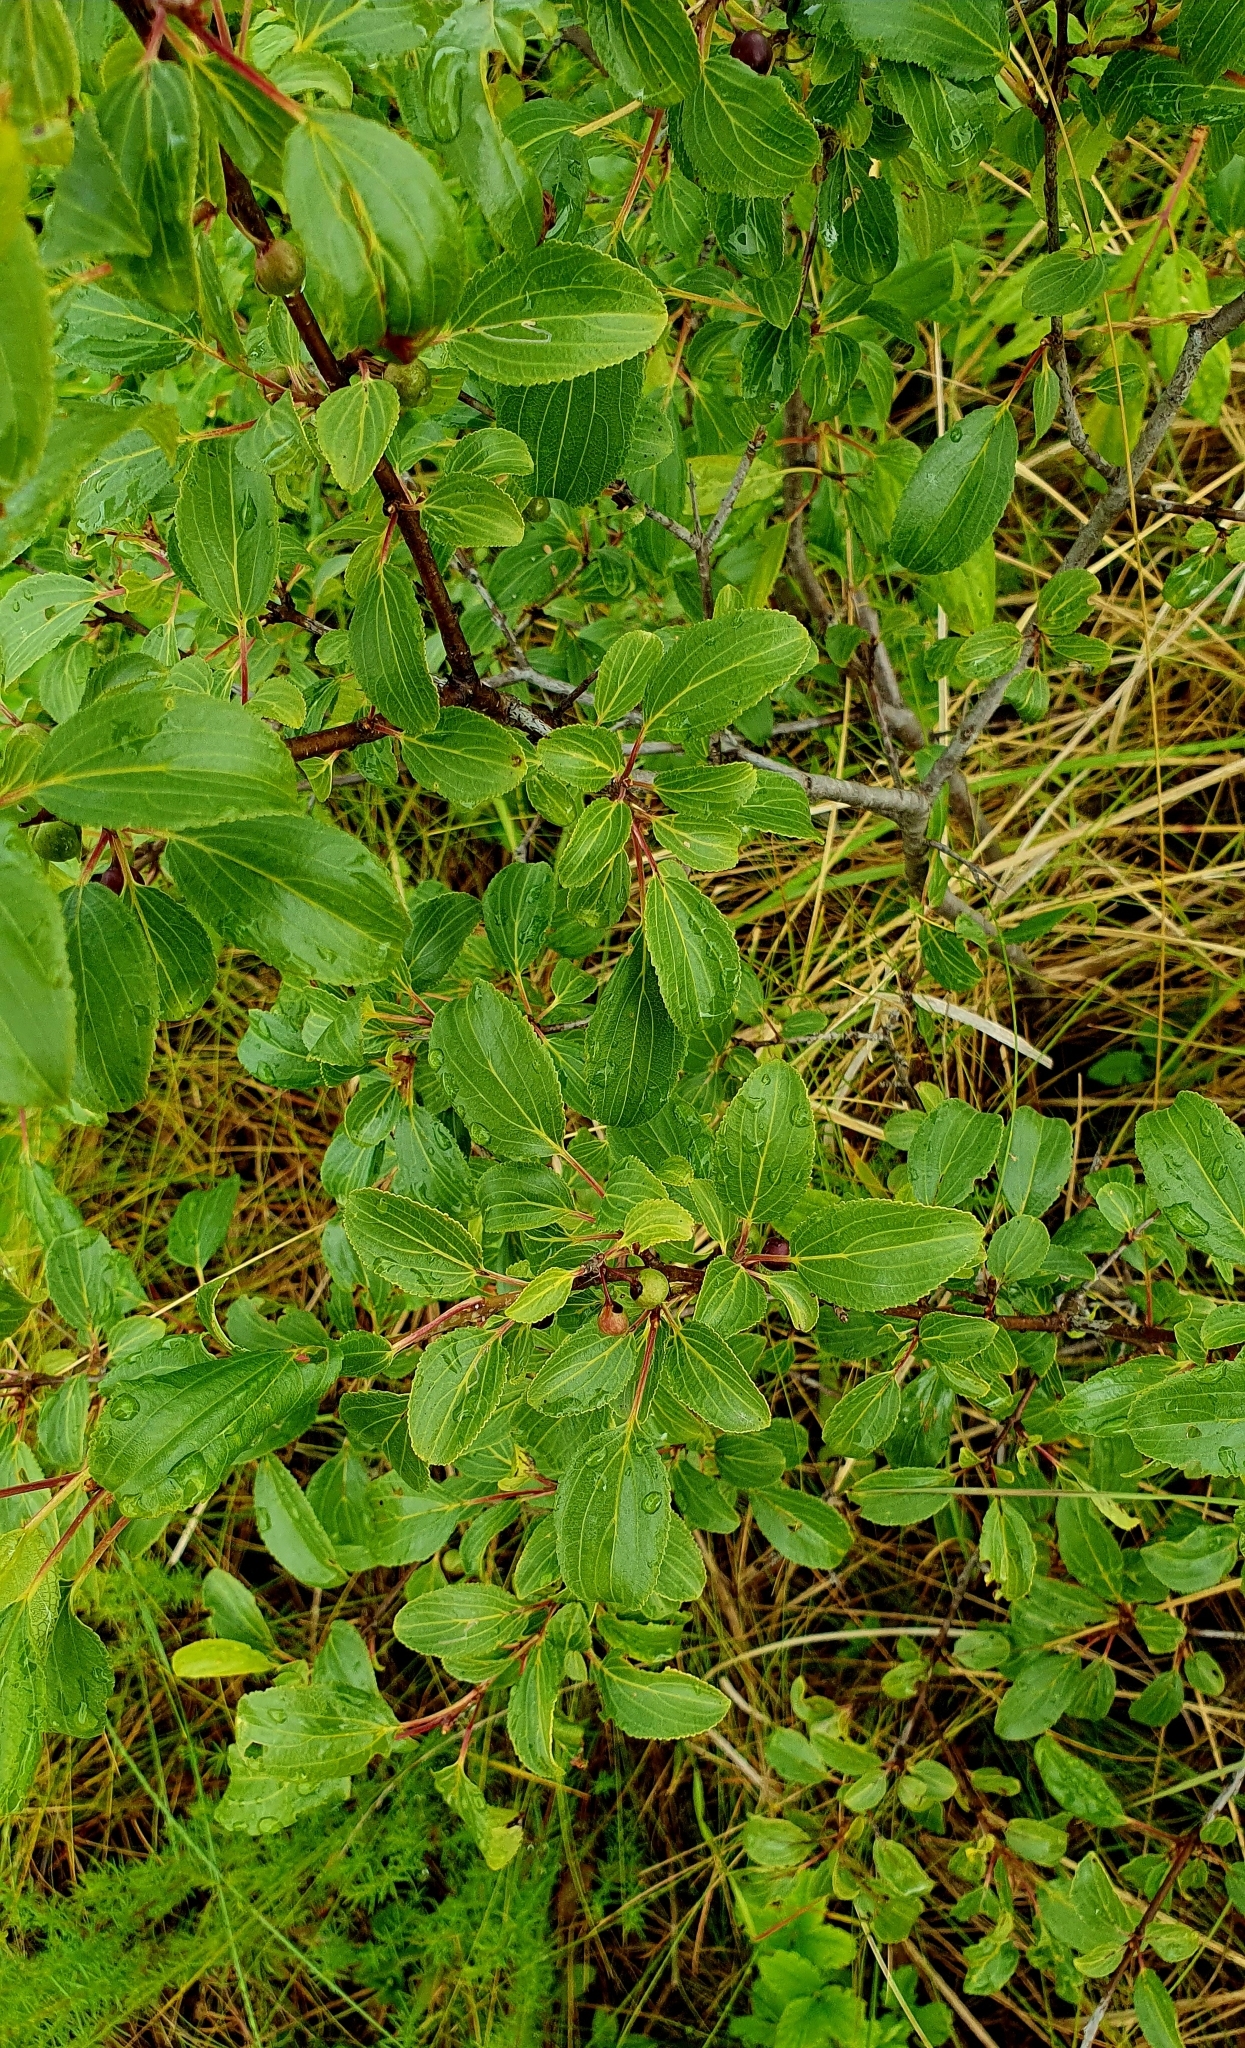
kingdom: Plantae
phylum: Tracheophyta
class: Magnoliopsida
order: Rosales
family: Rhamnaceae
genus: Rhamnus
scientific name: Rhamnus cathartica
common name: Common buckthorn
